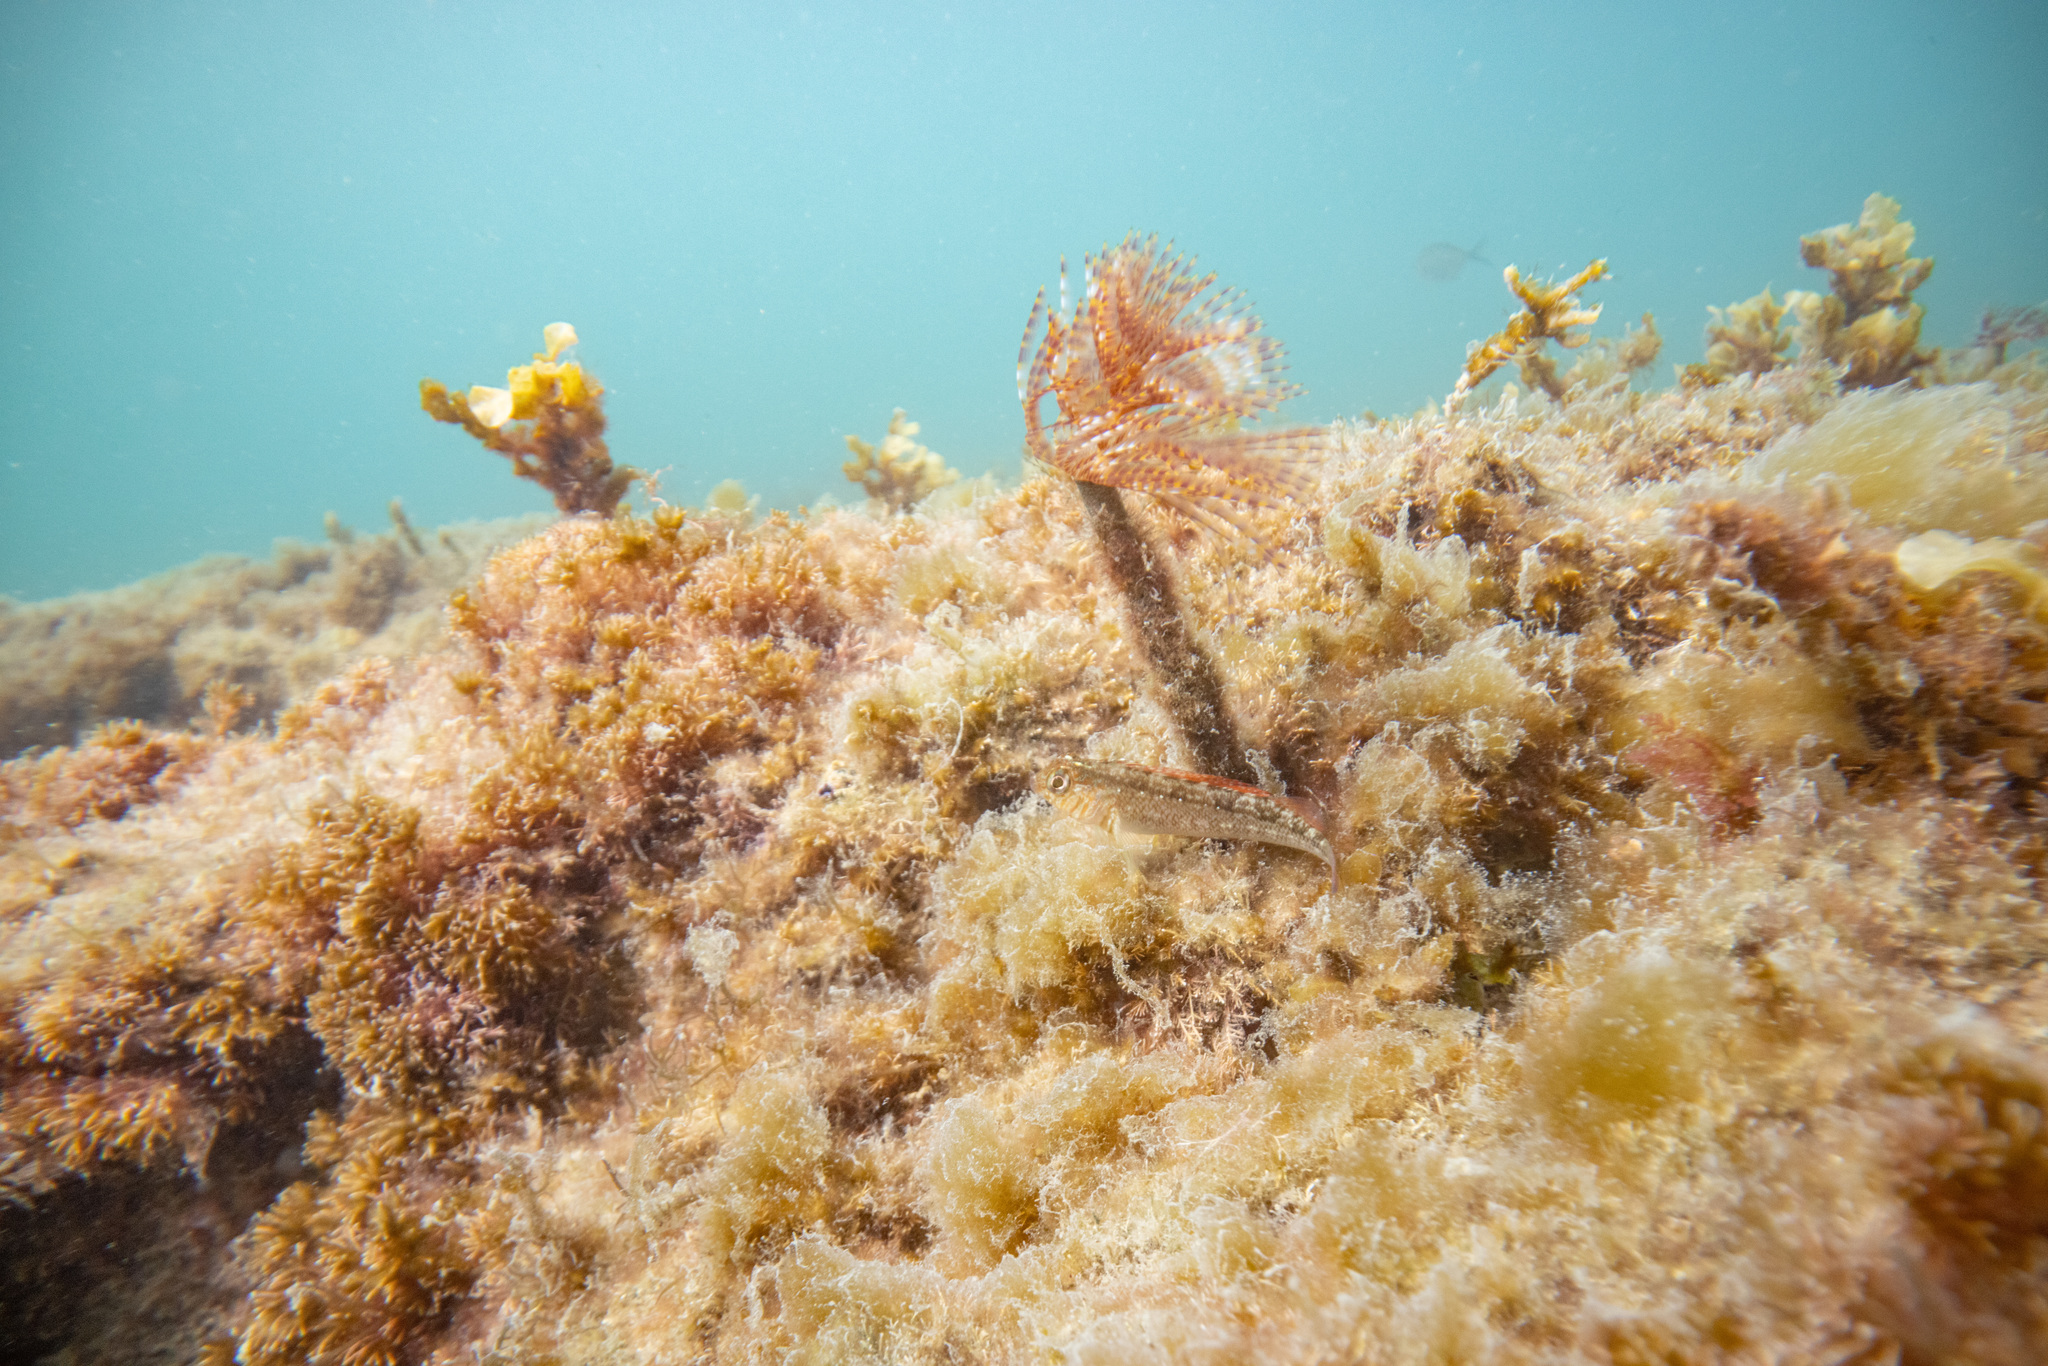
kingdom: Animalia
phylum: Annelida
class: Polychaeta
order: Sabellida
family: Sabellidae
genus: Sabella
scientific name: Sabella spallanzanii
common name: Feather duster worm
